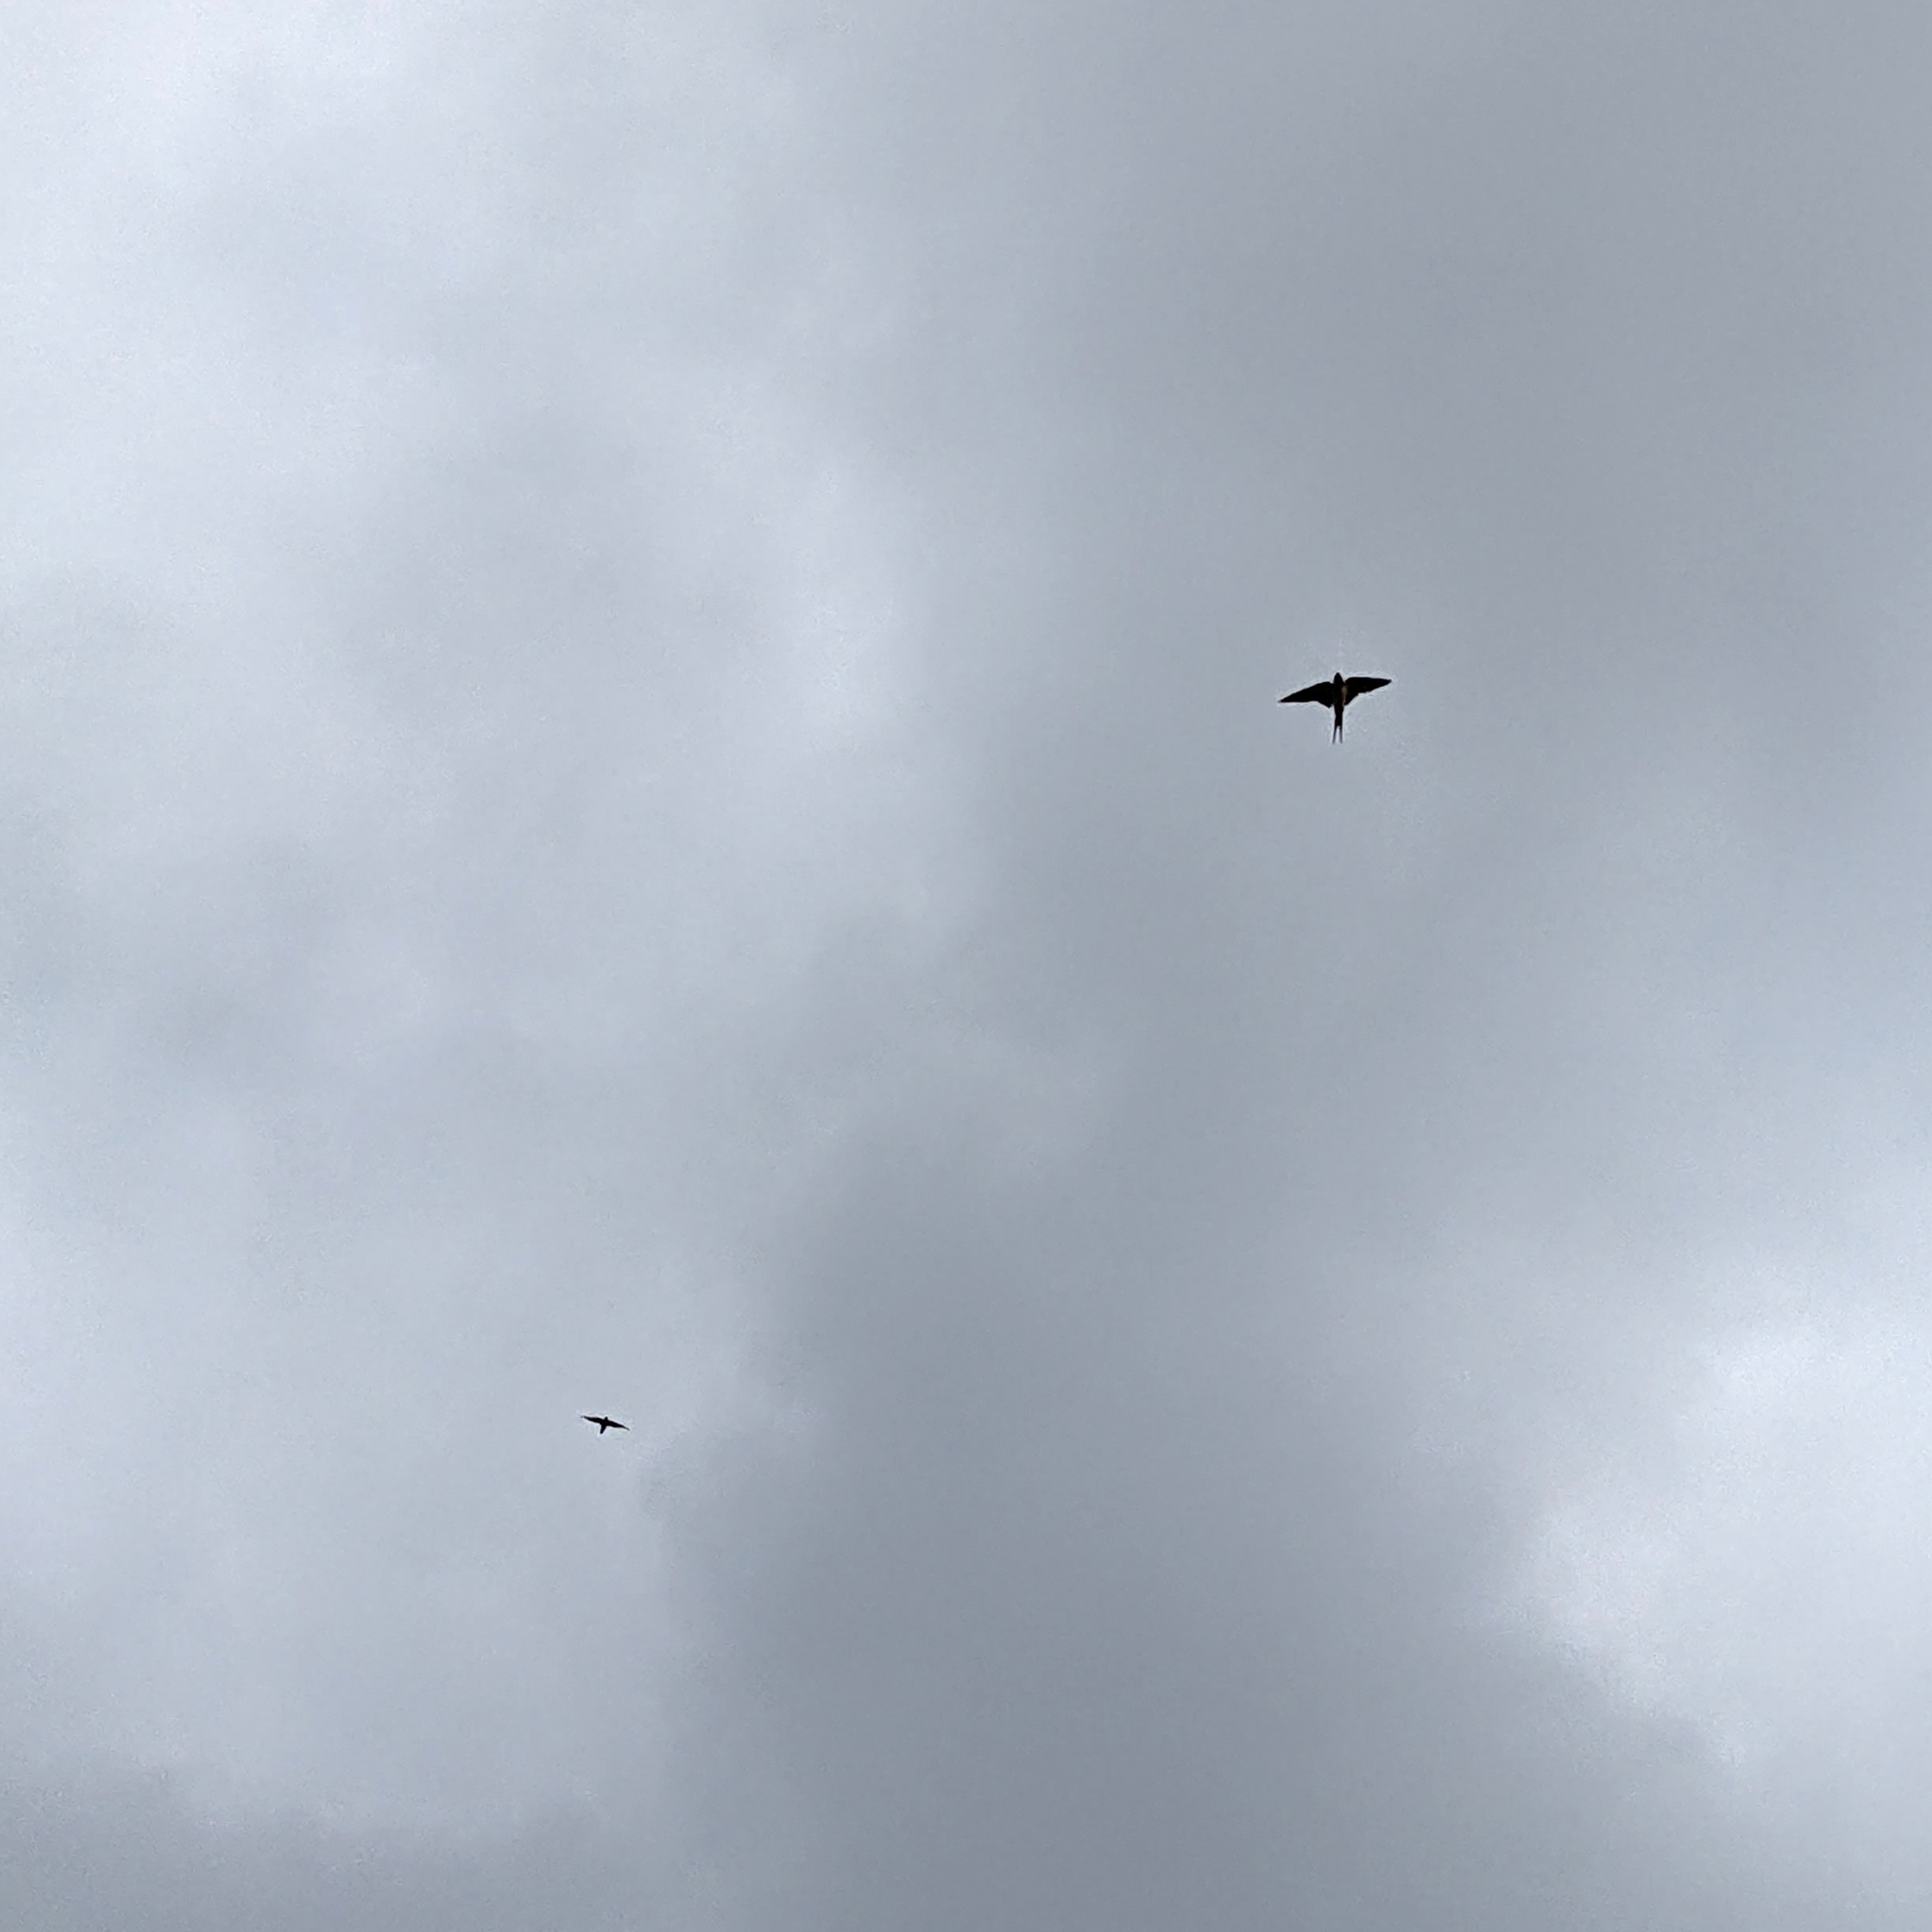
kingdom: Animalia
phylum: Chordata
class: Aves
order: Passeriformes
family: Hirundinidae
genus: Hirundo
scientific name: Hirundo rustica
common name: Barn swallow
